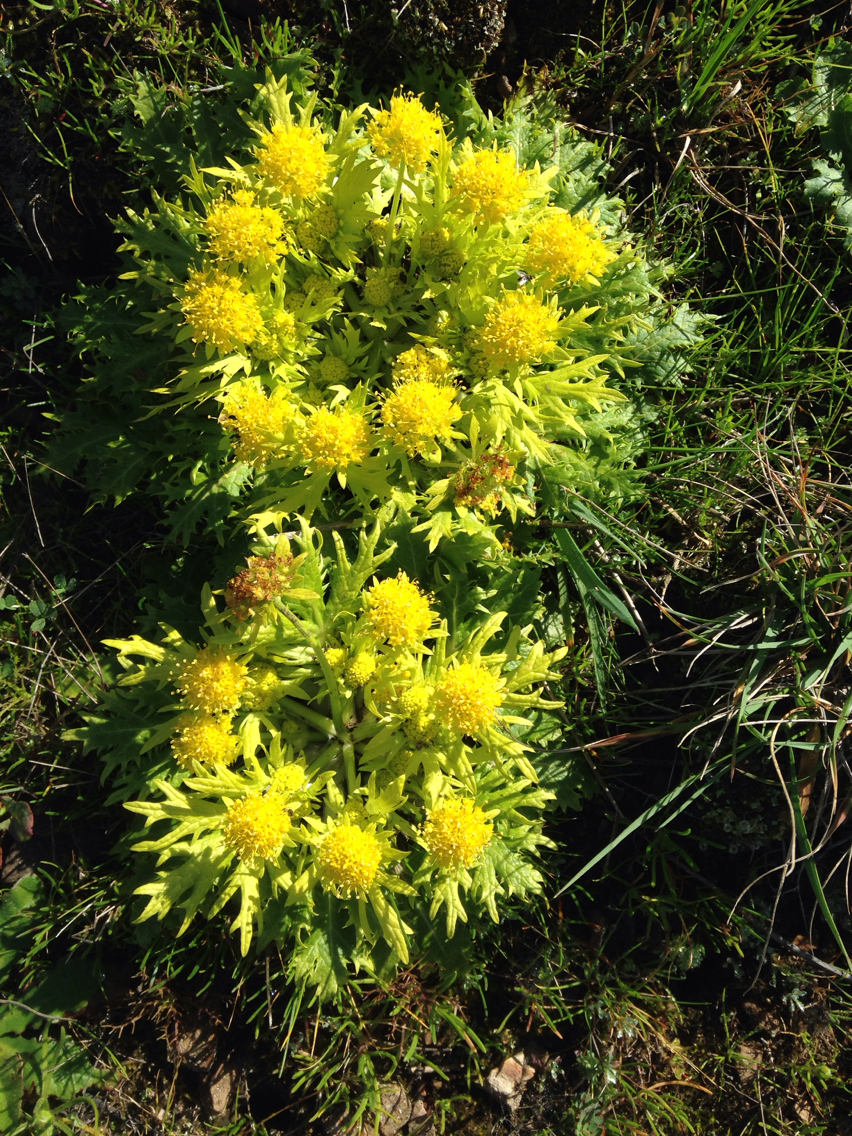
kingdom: Plantae
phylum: Tracheophyta
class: Magnoliopsida
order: Apiales
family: Apiaceae
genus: Sanicula
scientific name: Sanicula arctopoides
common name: Footsteps-of-spring
